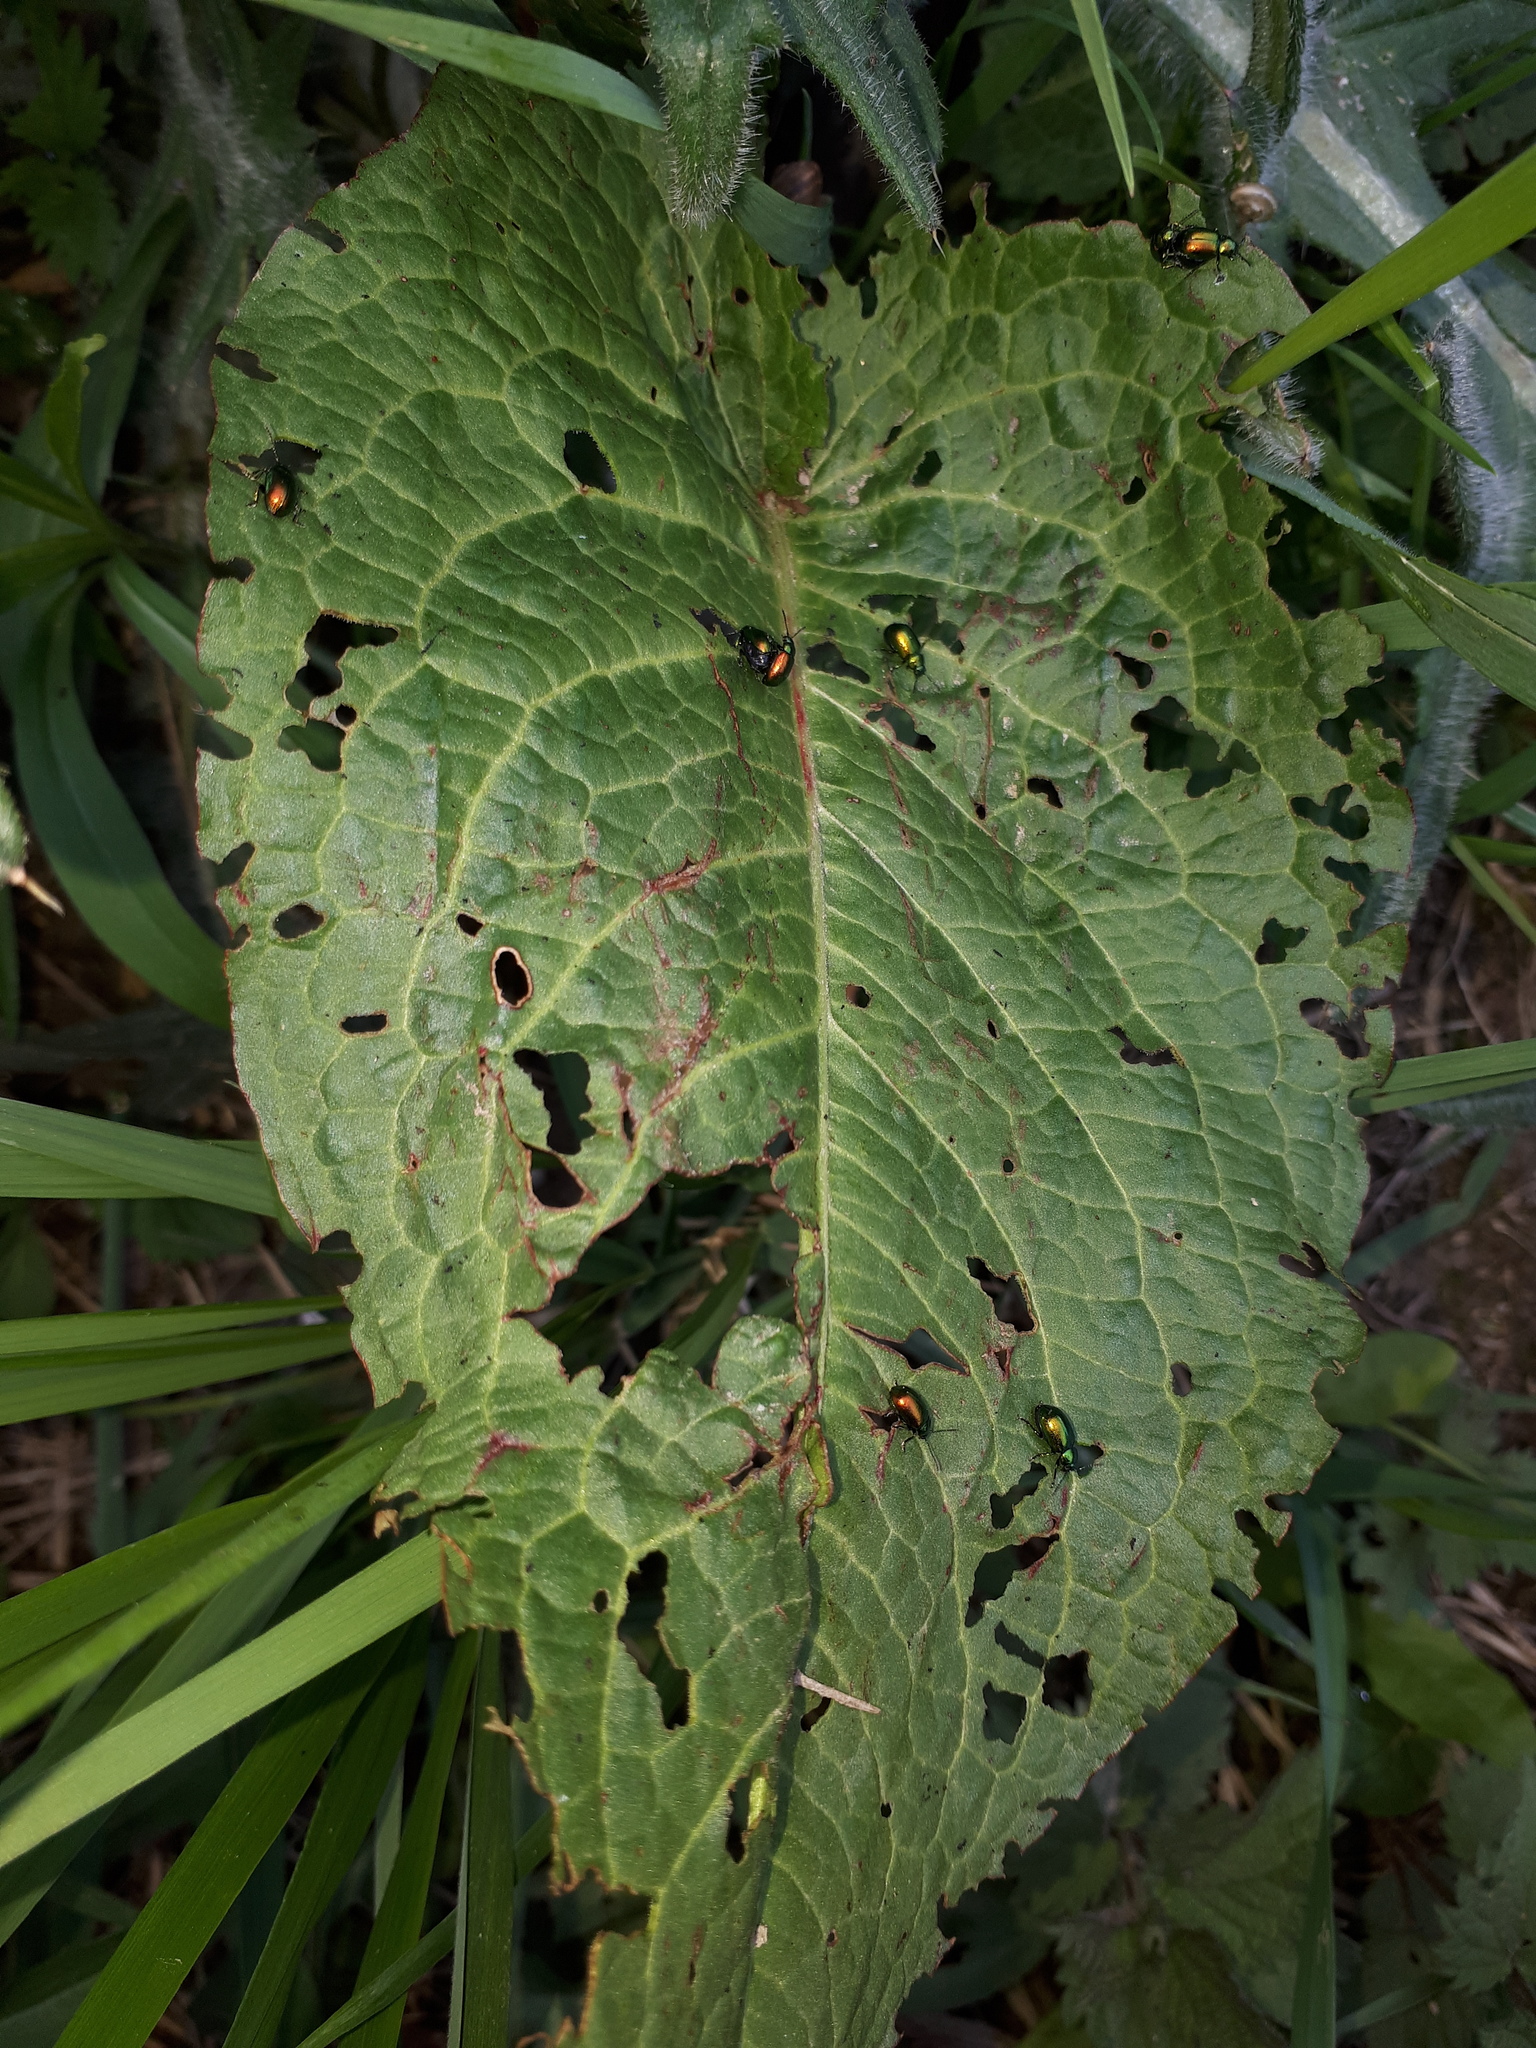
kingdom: Animalia
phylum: Arthropoda
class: Insecta
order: Coleoptera
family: Chrysomelidae
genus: Gastrophysa
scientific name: Gastrophysa viridula
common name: Green dock beetle
